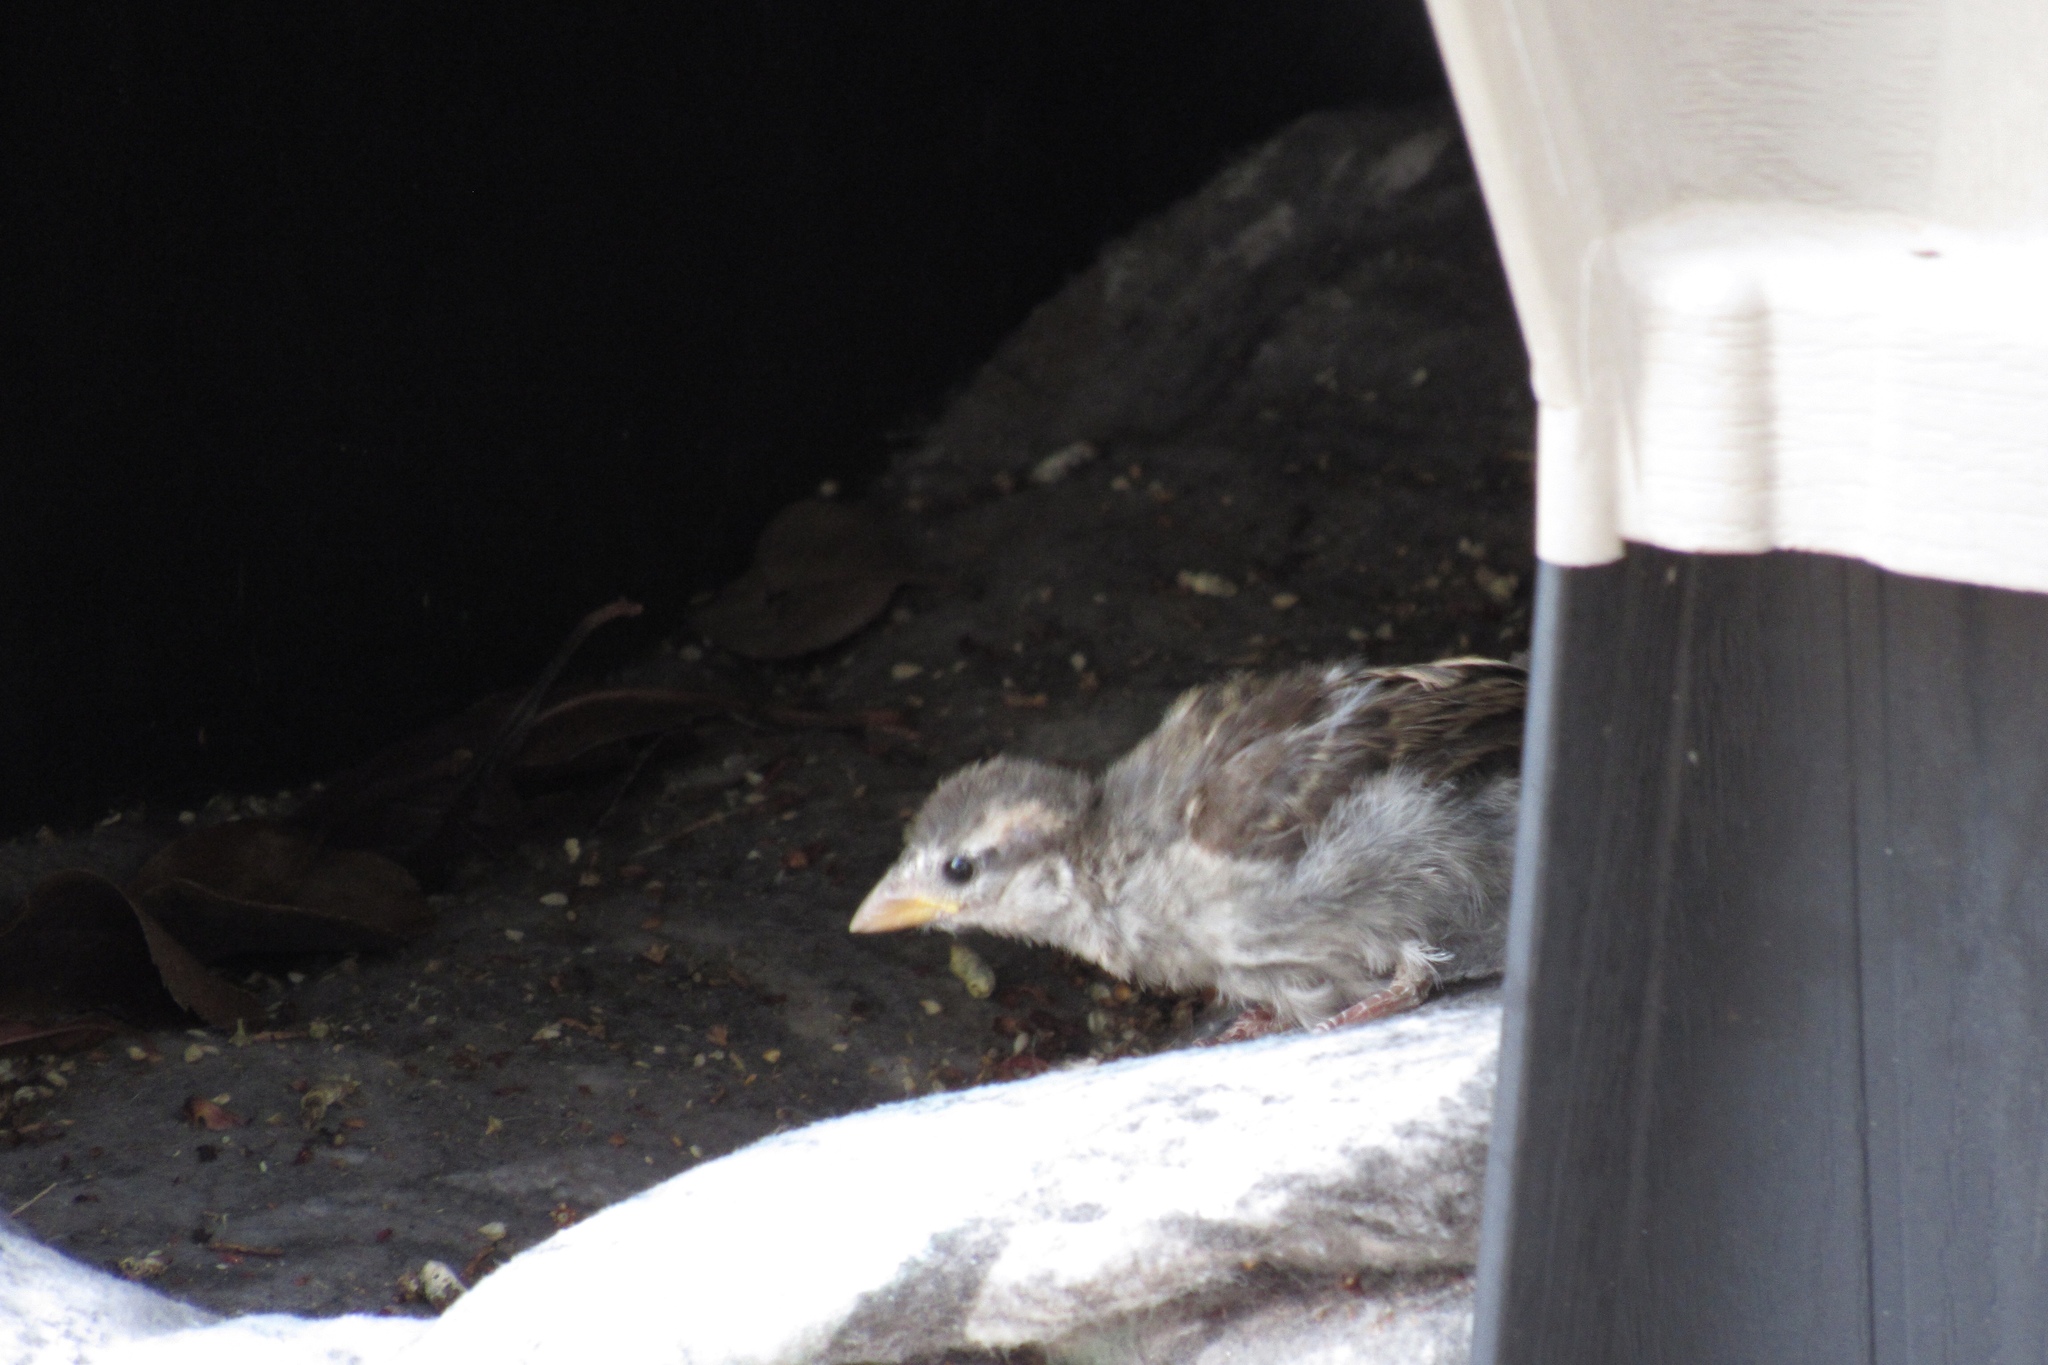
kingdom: Animalia
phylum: Chordata
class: Aves
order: Passeriformes
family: Passeridae
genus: Passer
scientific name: Passer domesticus
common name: House sparrow
